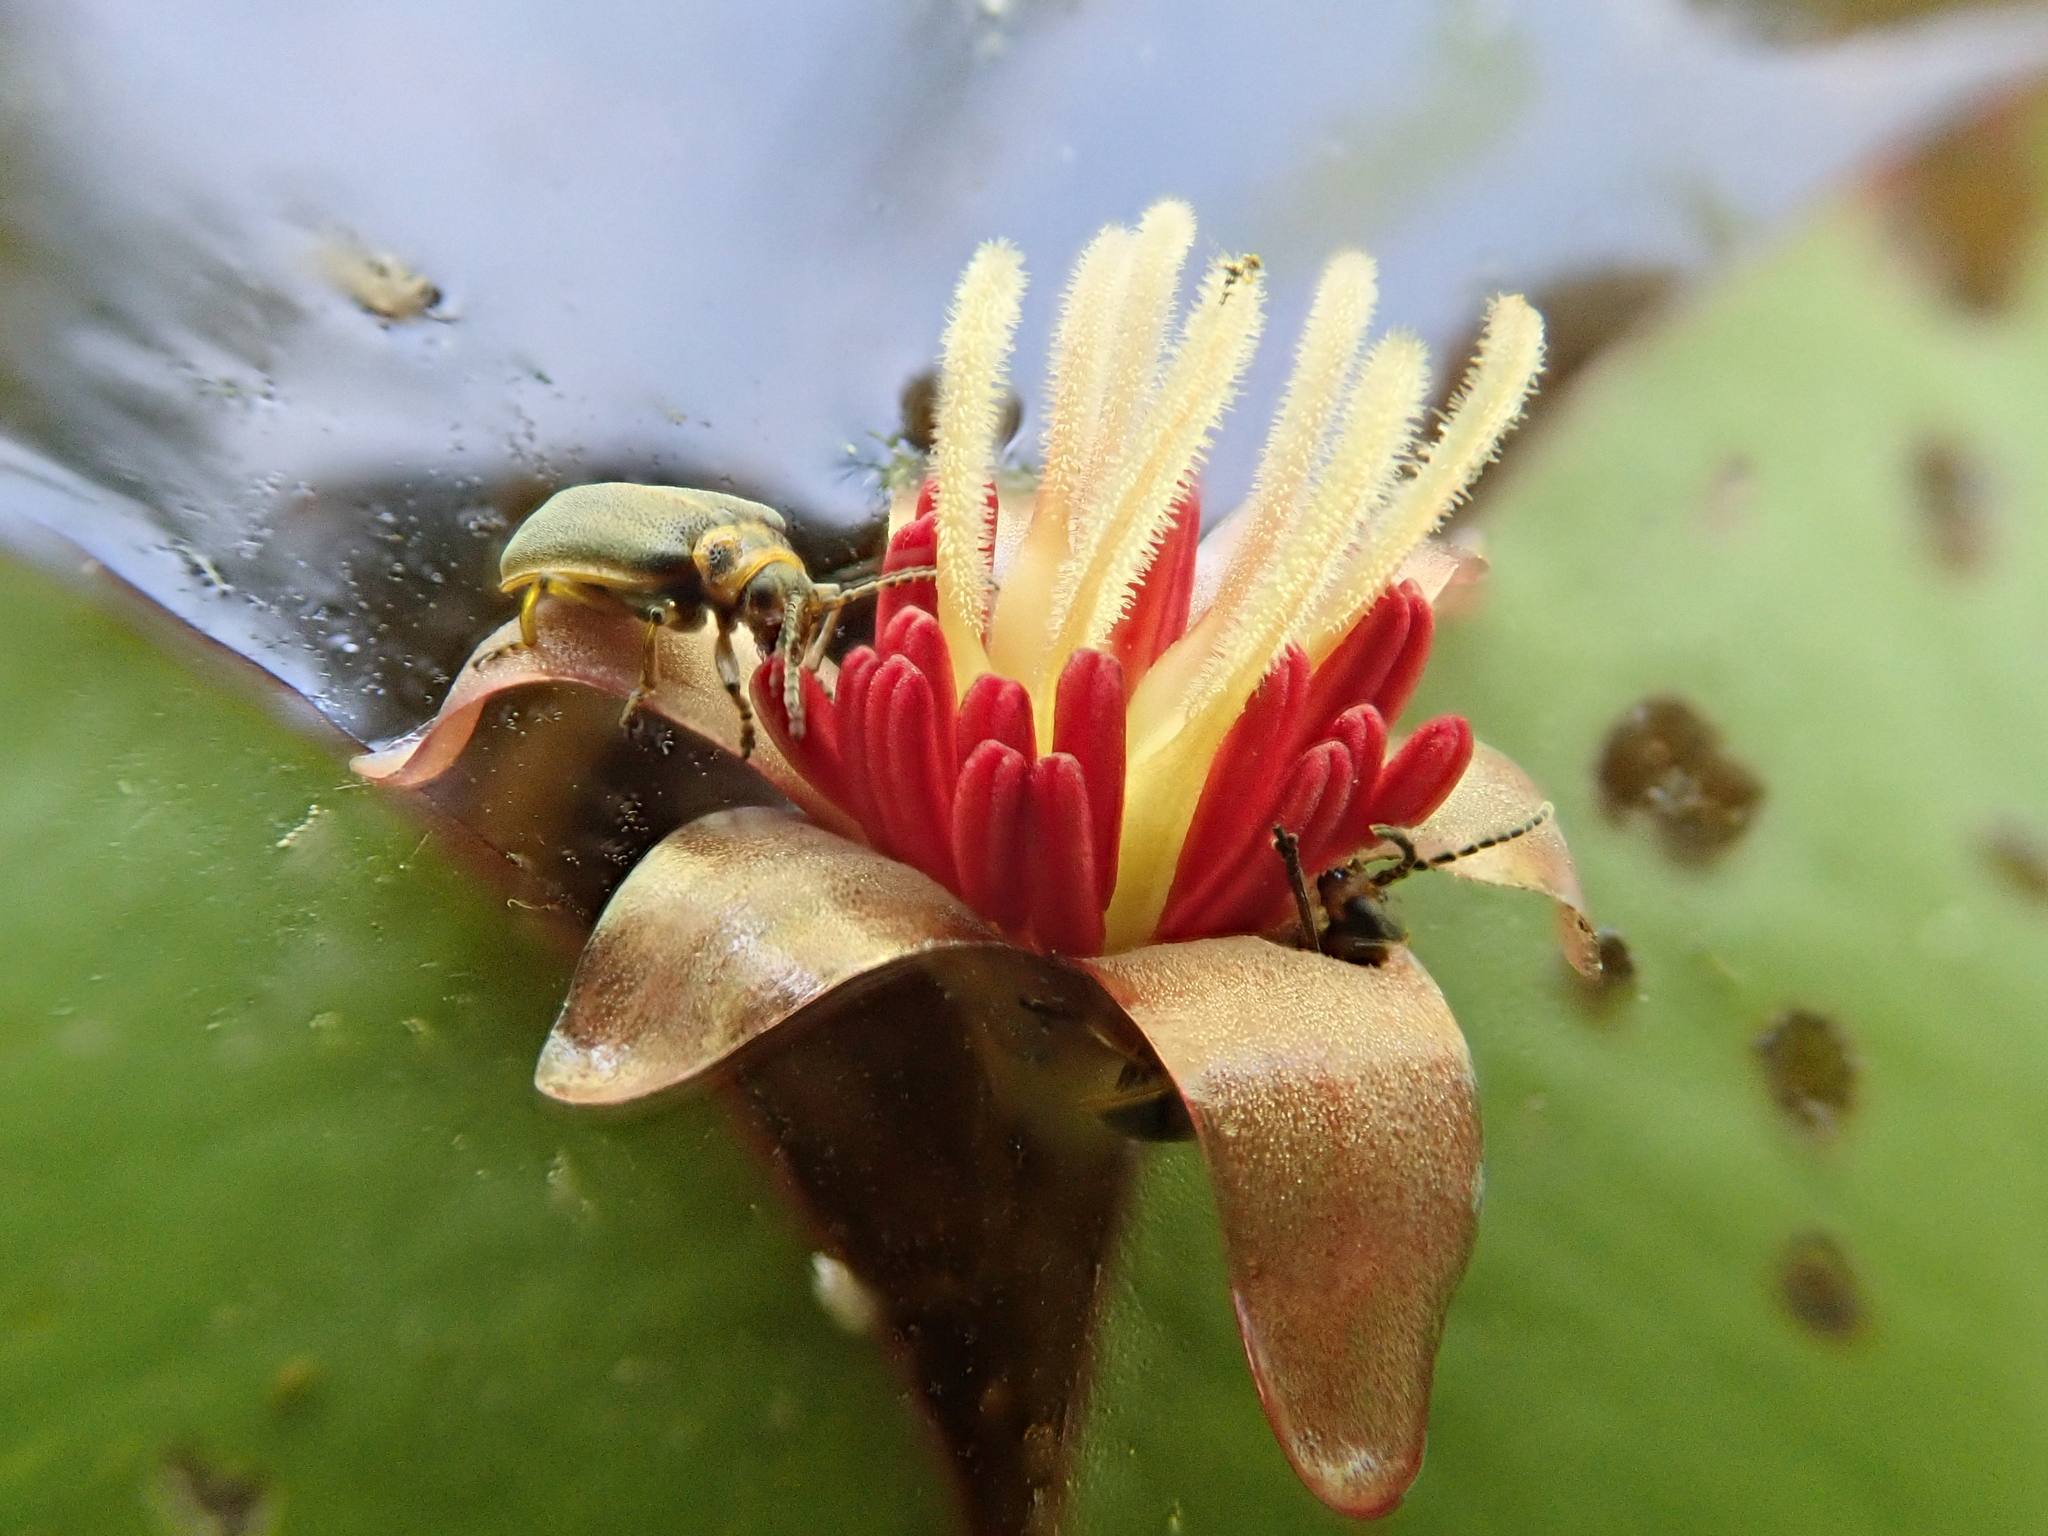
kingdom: Plantae
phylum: Tracheophyta
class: Magnoliopsida
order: Nymphaeales
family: Cabombaceae
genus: Brasenia
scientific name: Brasenia schreberi
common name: Water-shield
